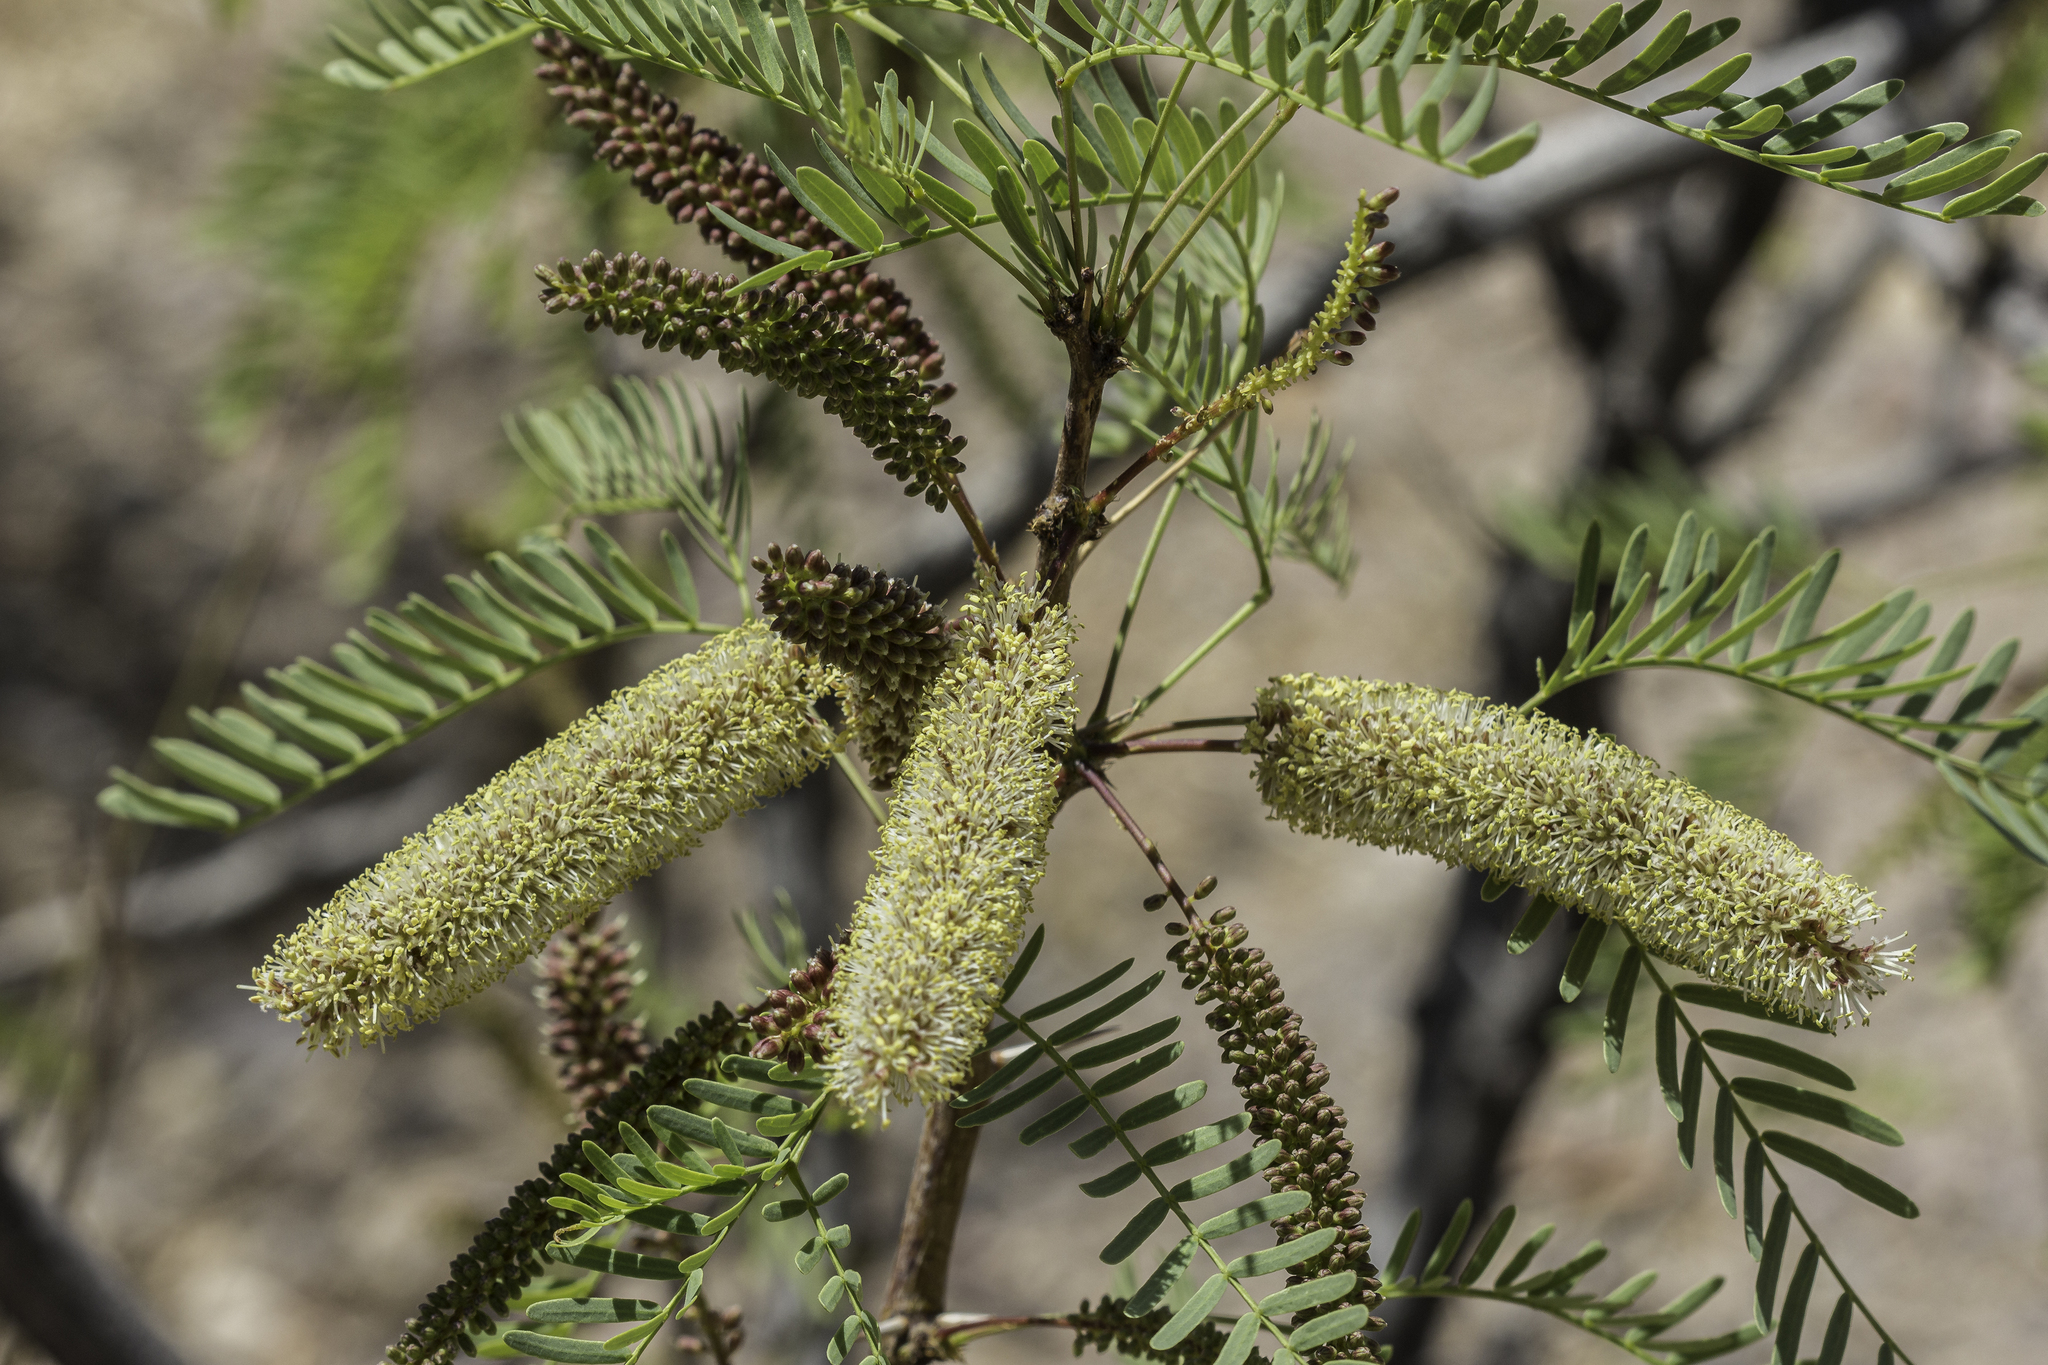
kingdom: Plantae
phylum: Tracheophyta
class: Magnoliopsida
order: Fabales
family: Fabaceae
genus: Prosopis
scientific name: Prosopis glandulosa
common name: Honey mesquite
